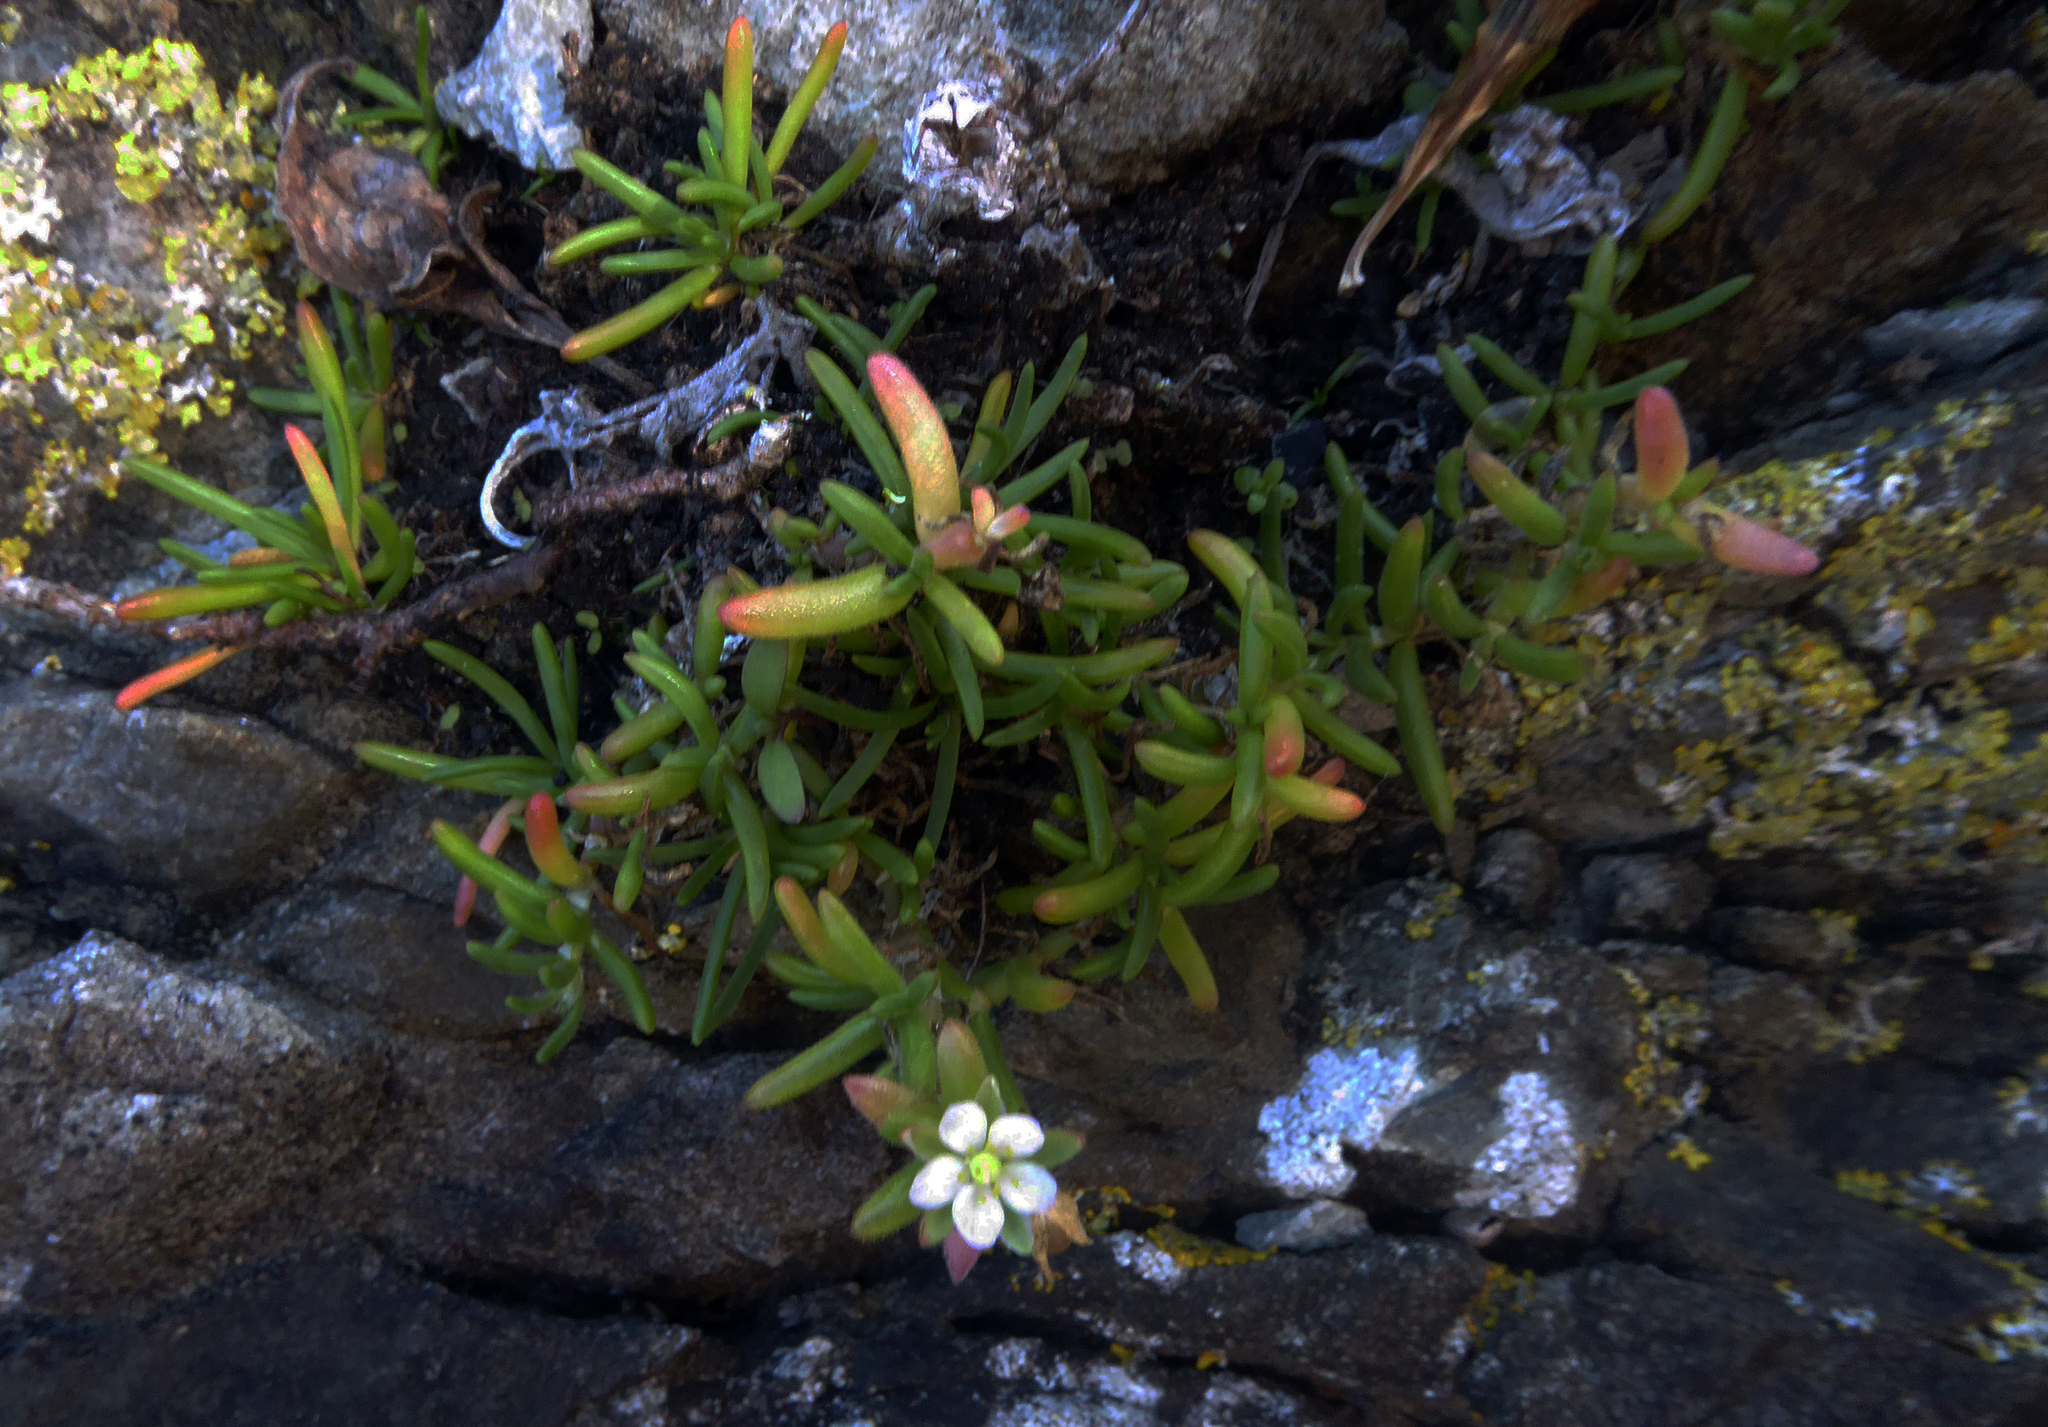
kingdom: Plantae
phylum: Tracheophyta
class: Magnoliopsida
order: Caryophyllales
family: Caryophyllaceae
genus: Spergularia
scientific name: Spergularia tasmanica
